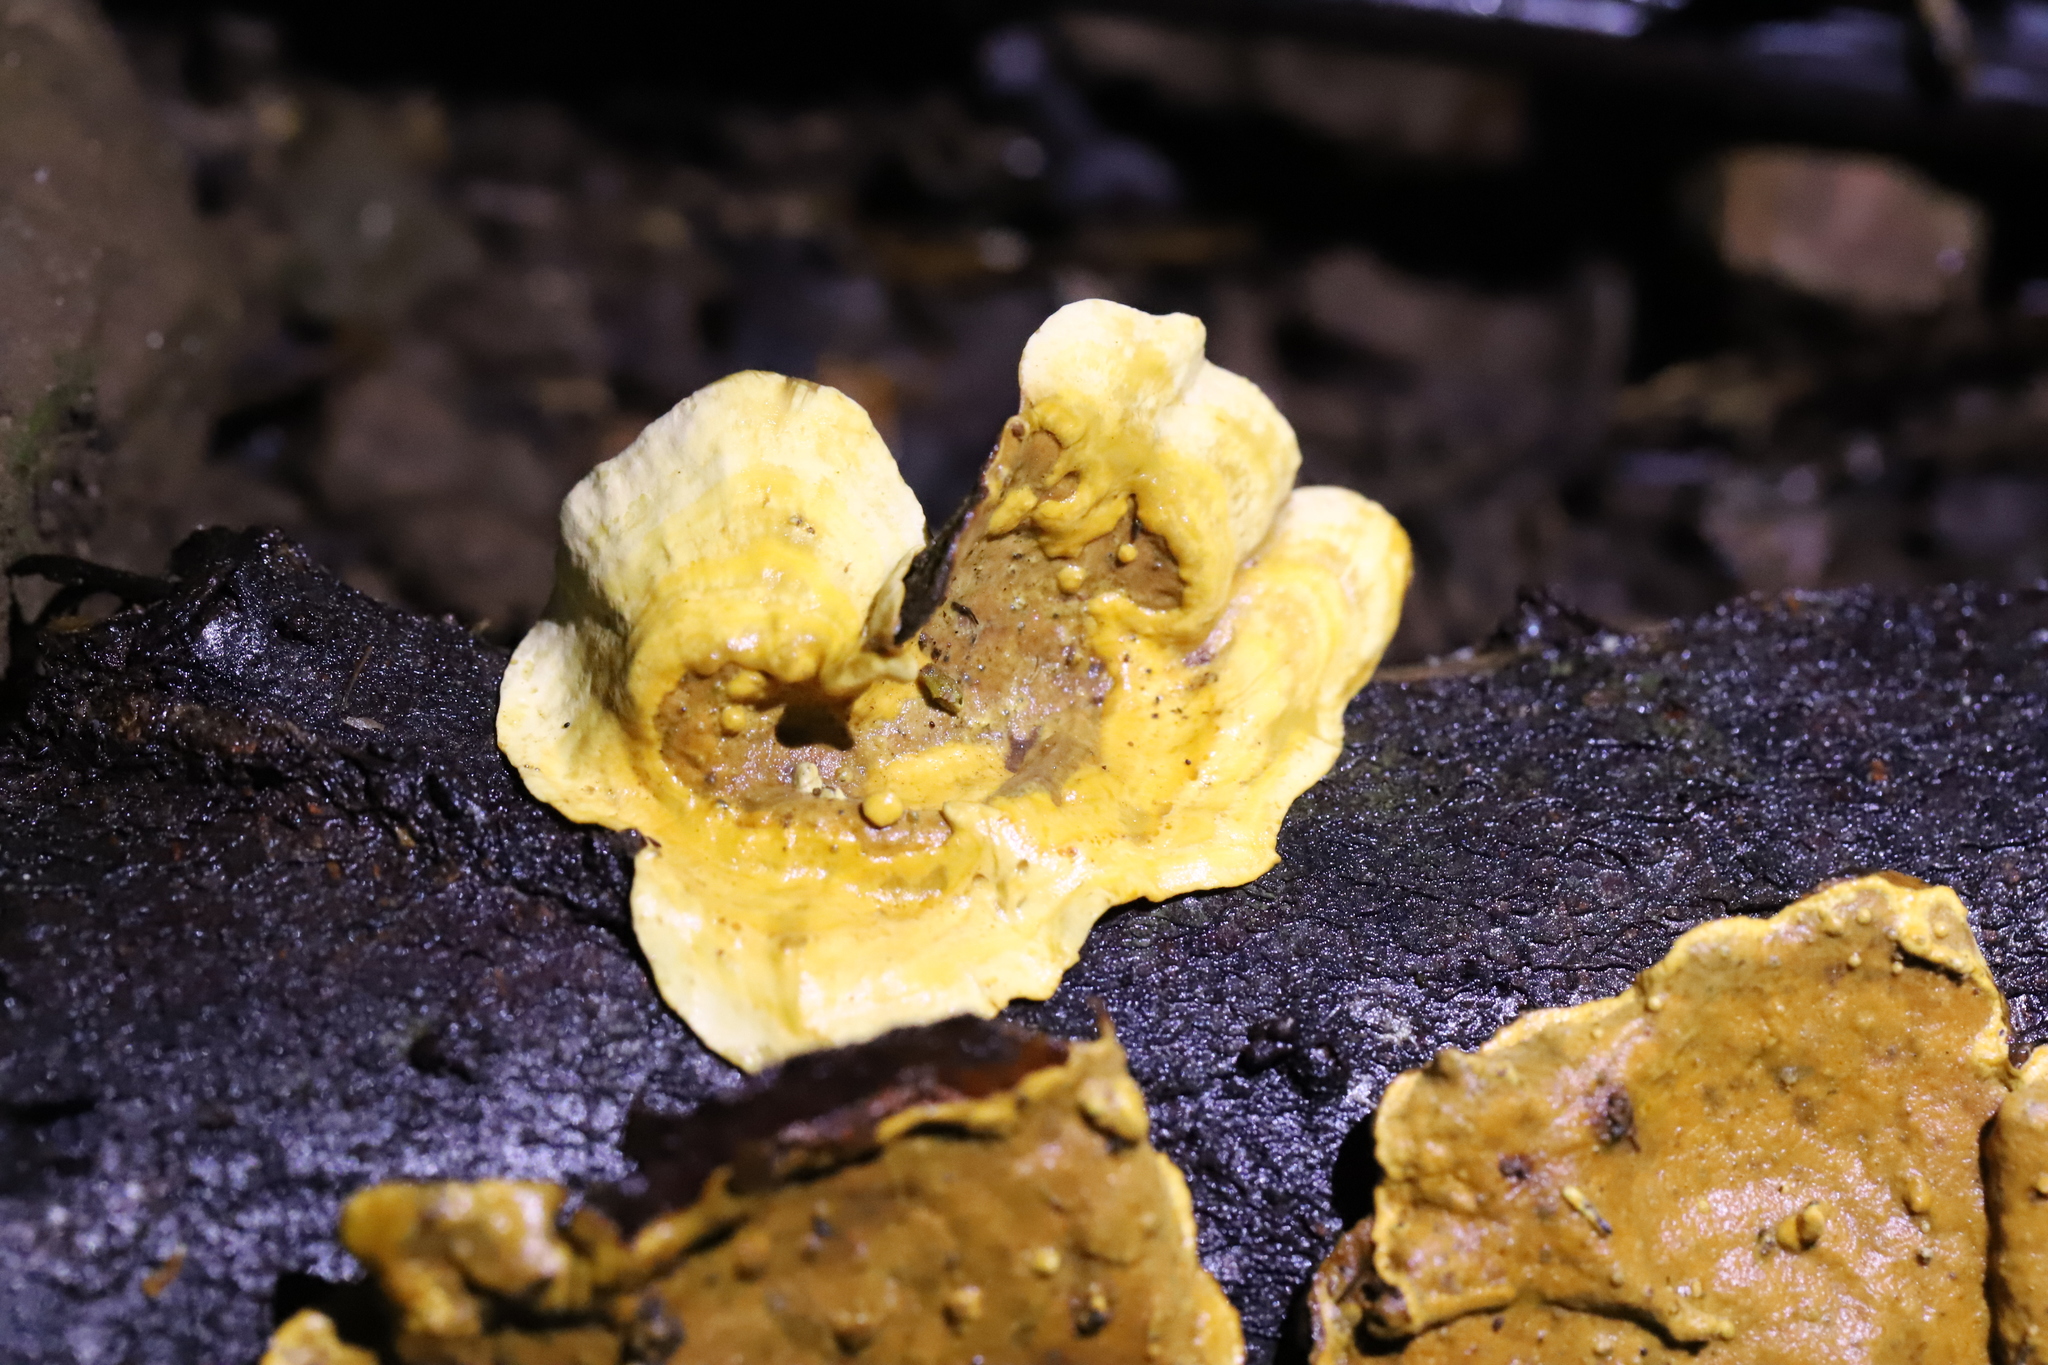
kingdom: Fungi
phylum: Basidiomycota
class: Agaricomycetes
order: Russulales
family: Stereaceae
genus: Stereum
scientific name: Stereum versicolor
